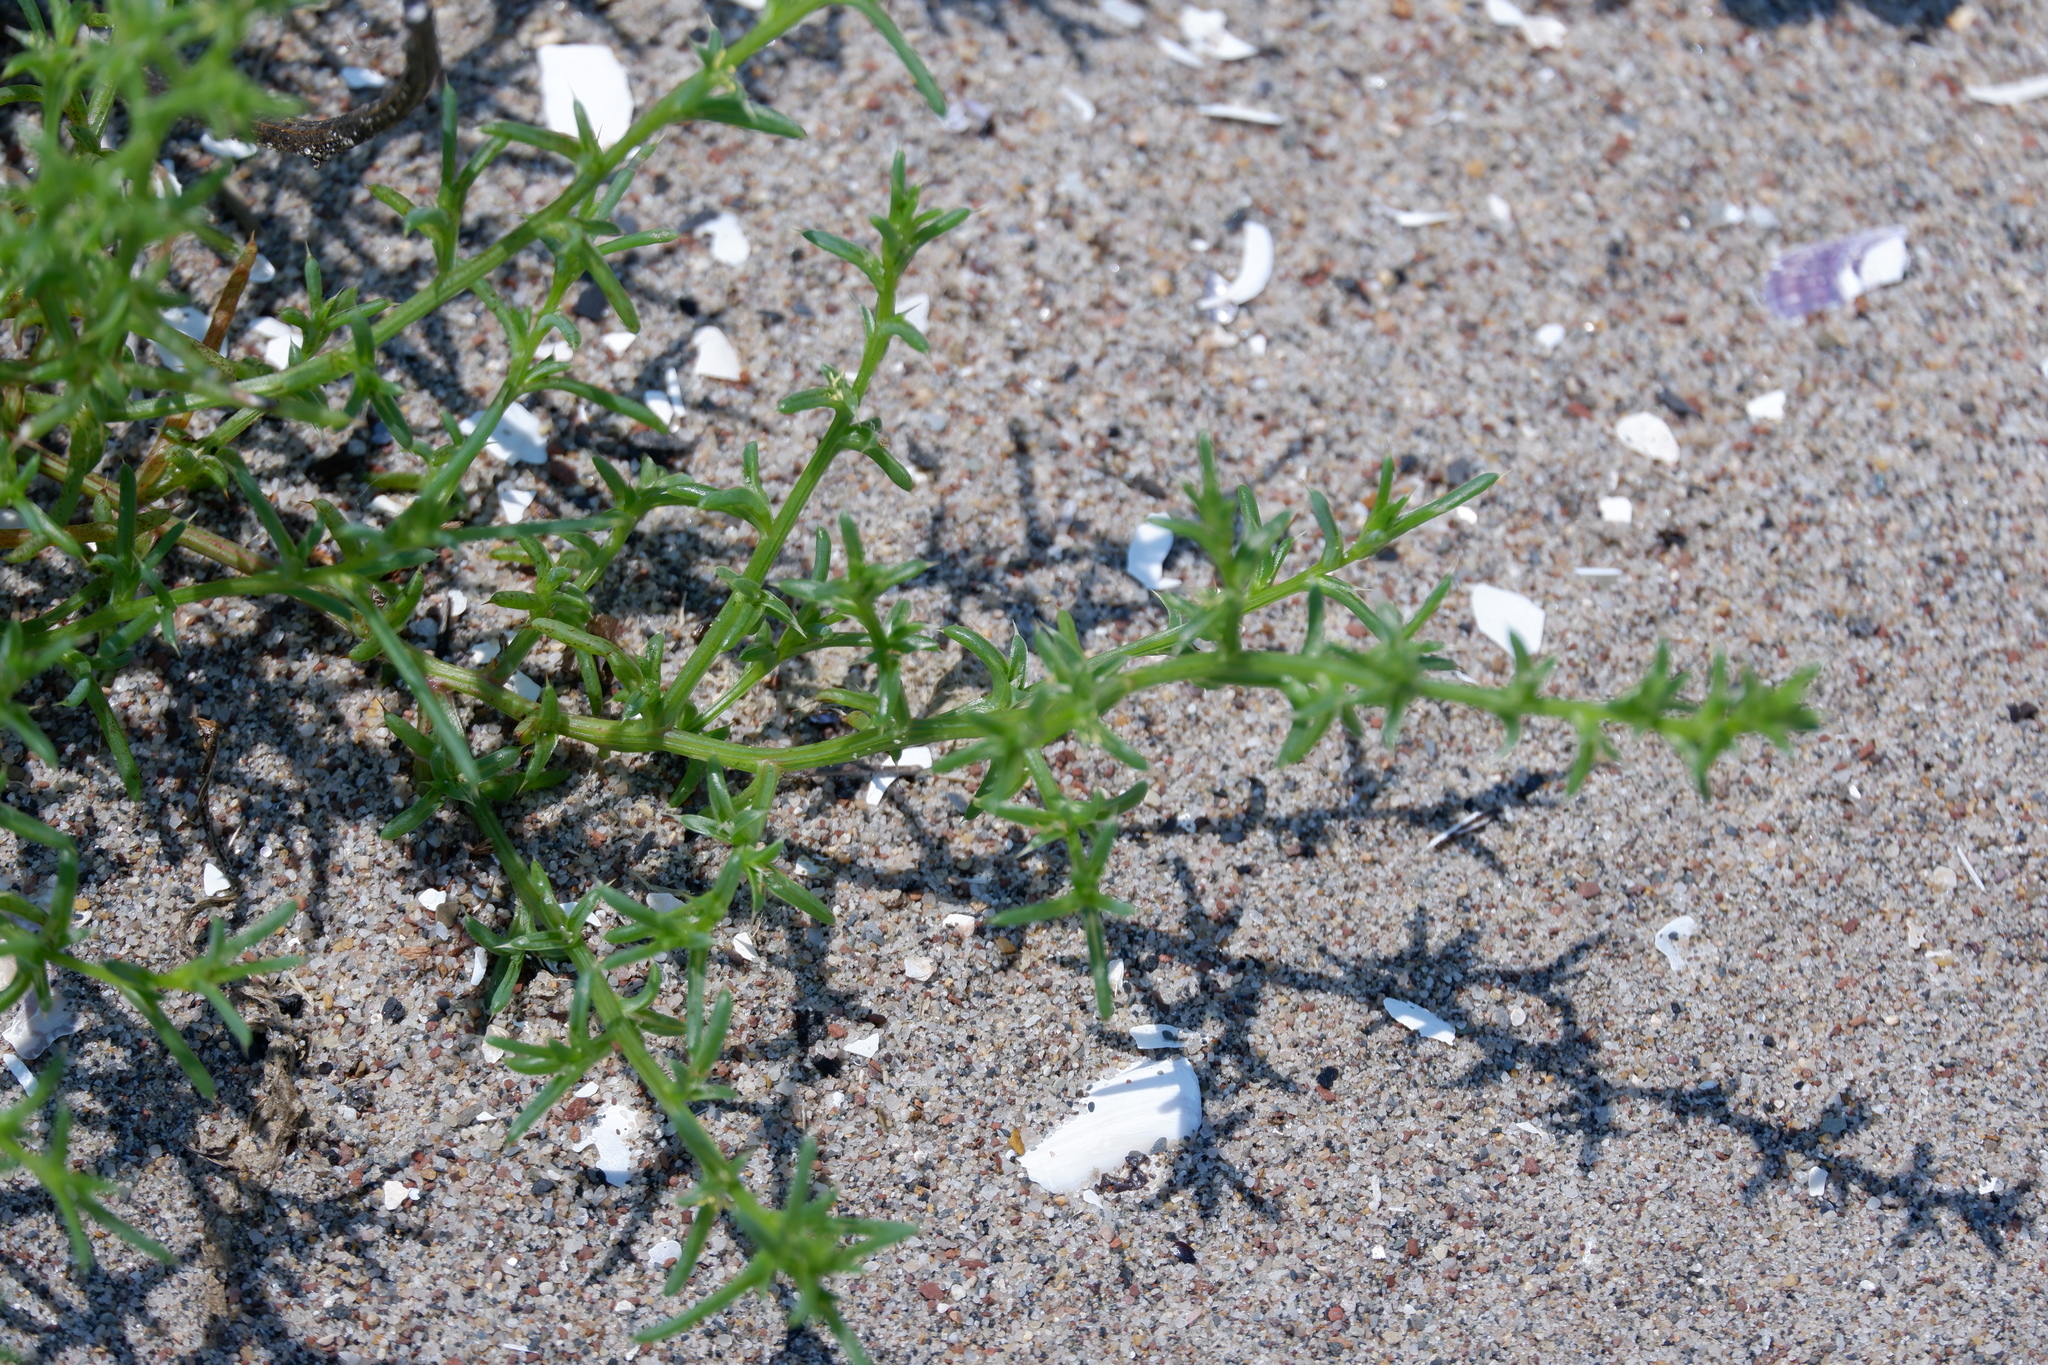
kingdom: Plantae
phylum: Tracheophyta
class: Magnoliopsida
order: Caryophyllales
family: Amaranthaceae
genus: Salsola
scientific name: Salsola kali
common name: Saltwort
